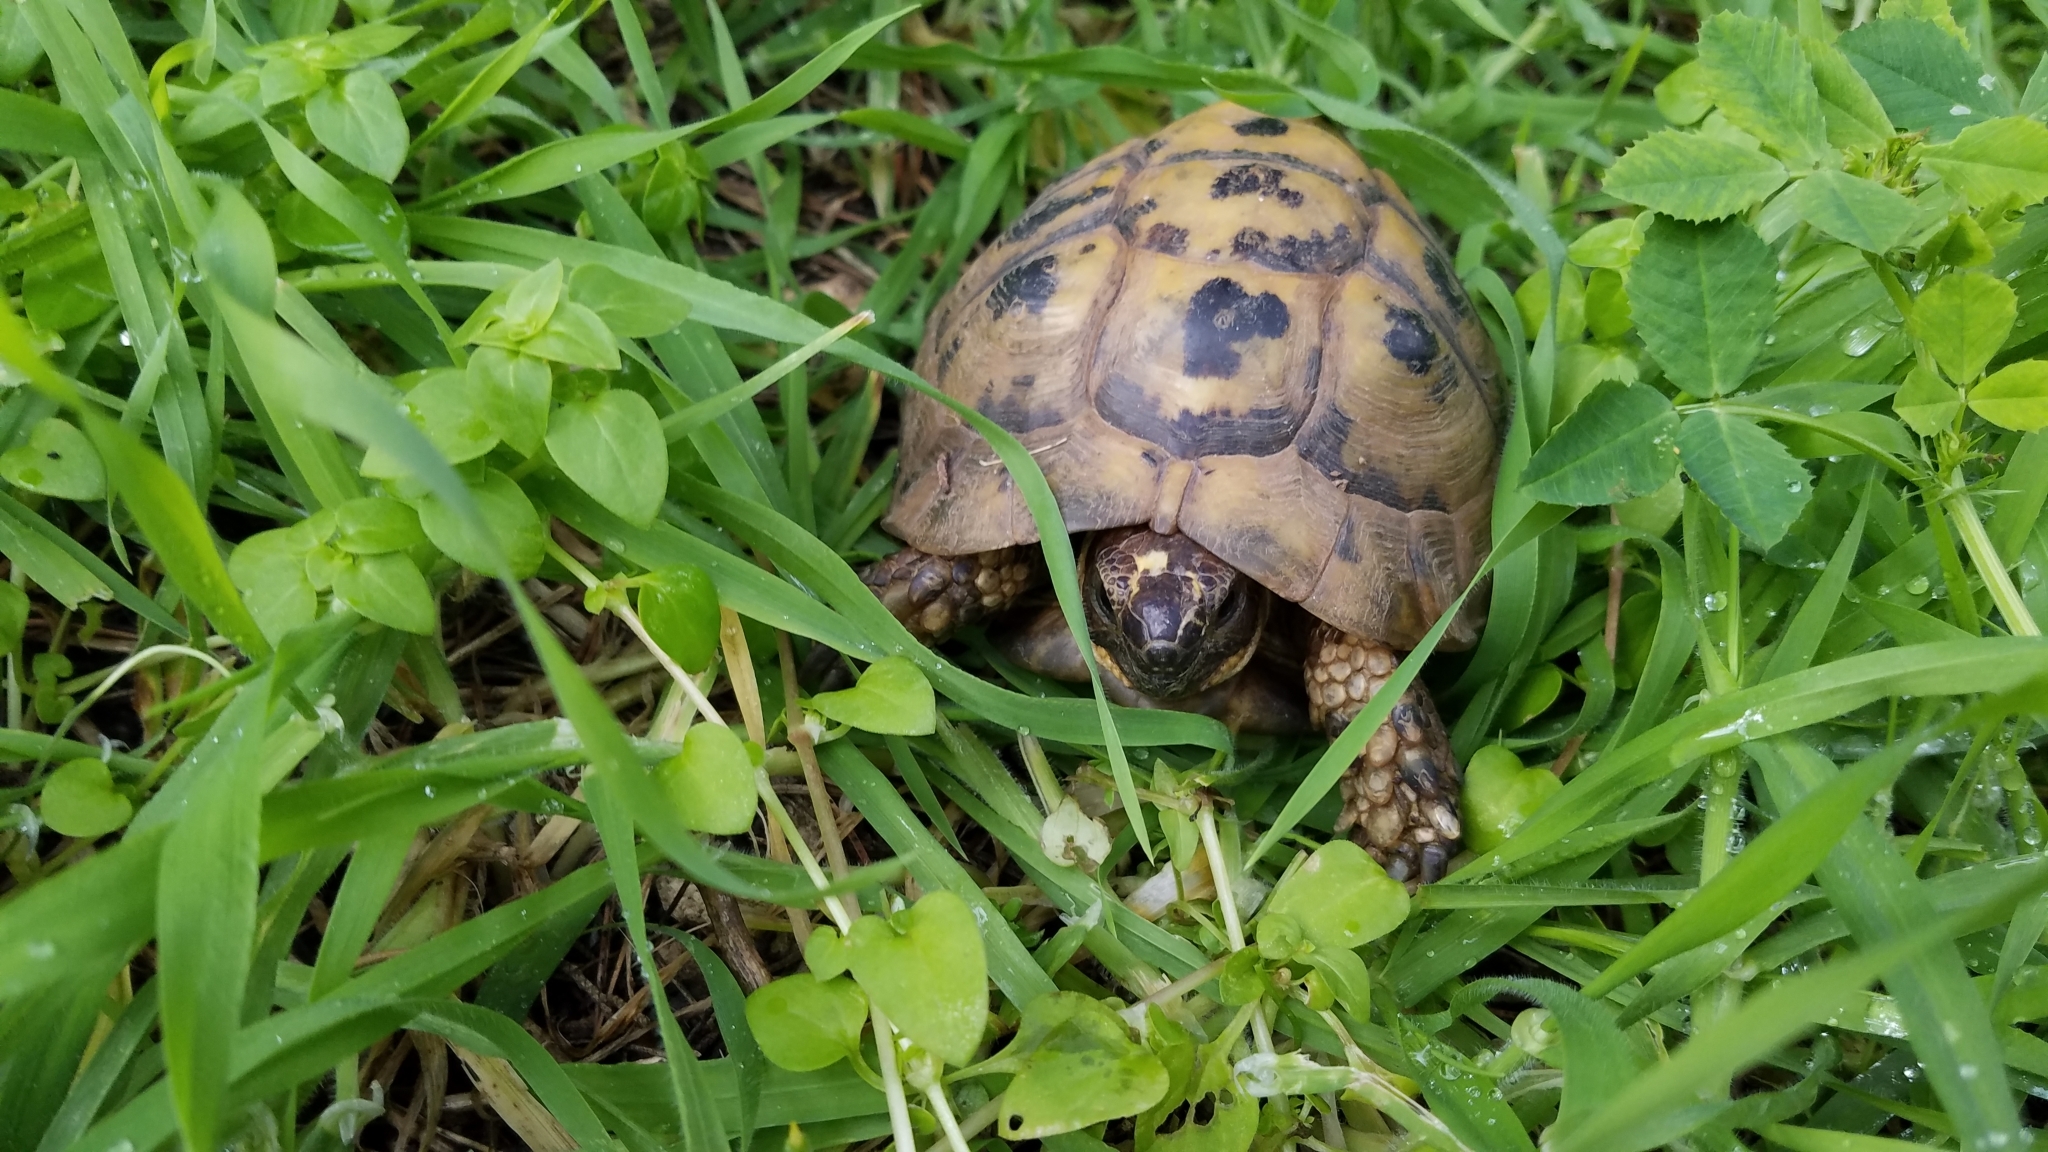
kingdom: Animalia
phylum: Chordata
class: Testudines
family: Testudinidae
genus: Testudo
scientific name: Testudo graeca
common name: Common tortoise
